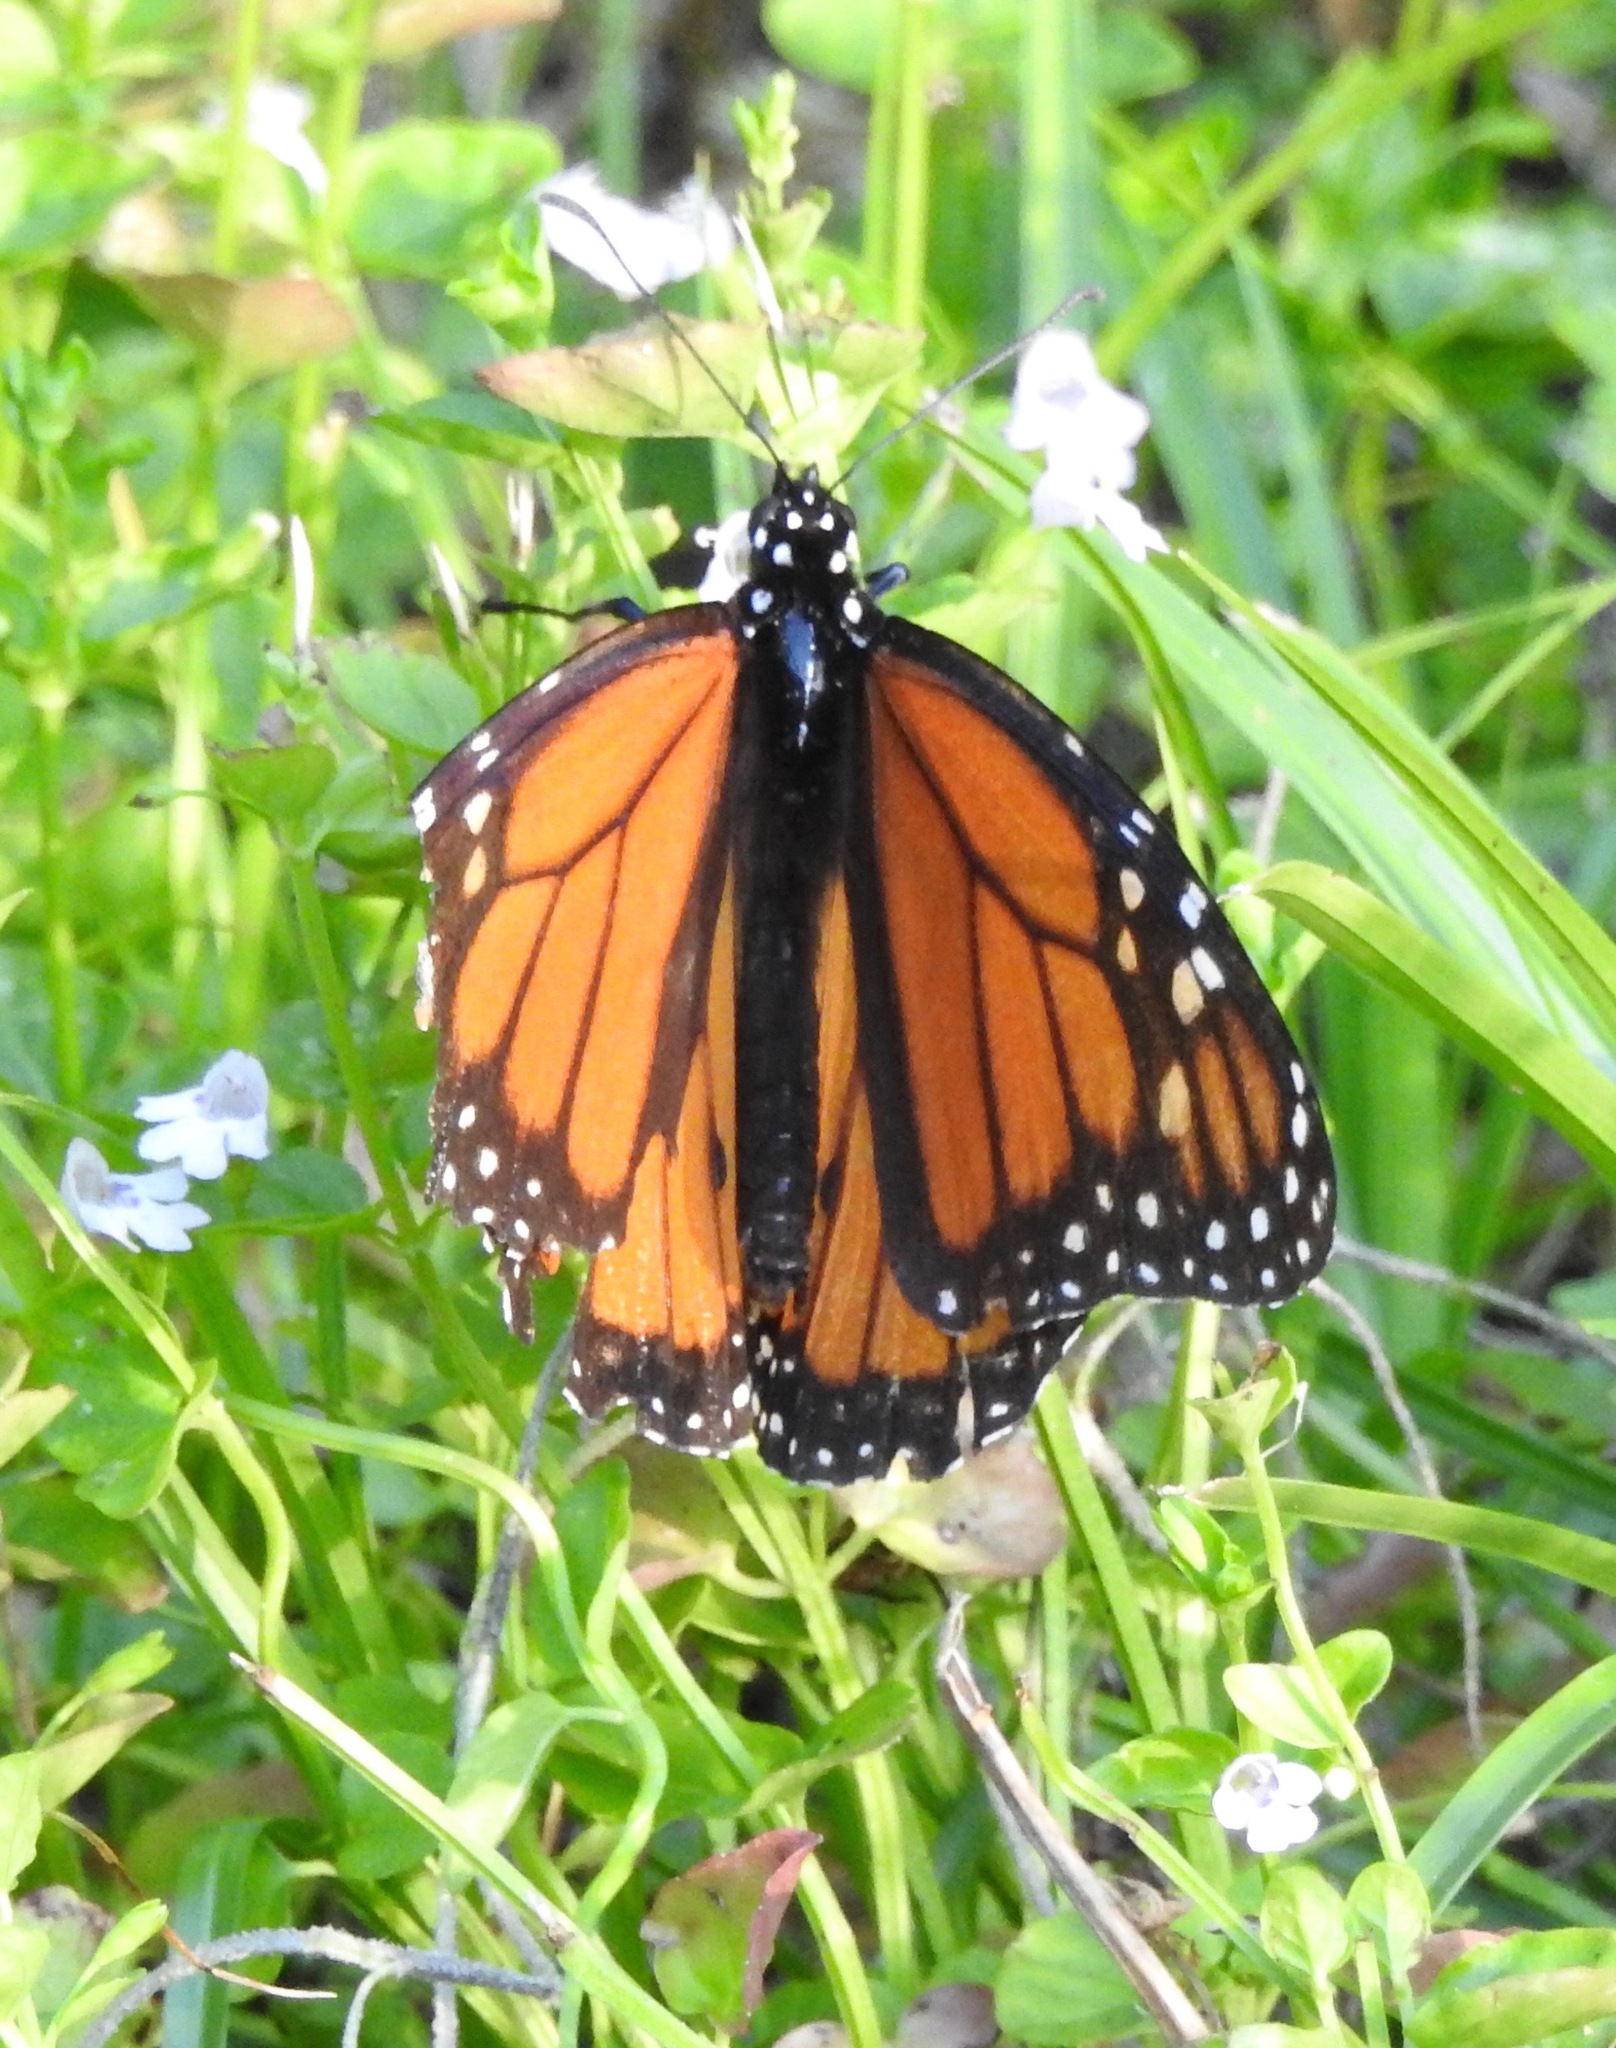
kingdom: Animalia
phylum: Arthropoda
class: Insecta
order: Lepidoptera
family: Nymphalidae
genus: Danaus
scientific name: Danaus plexippus
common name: Monarch
